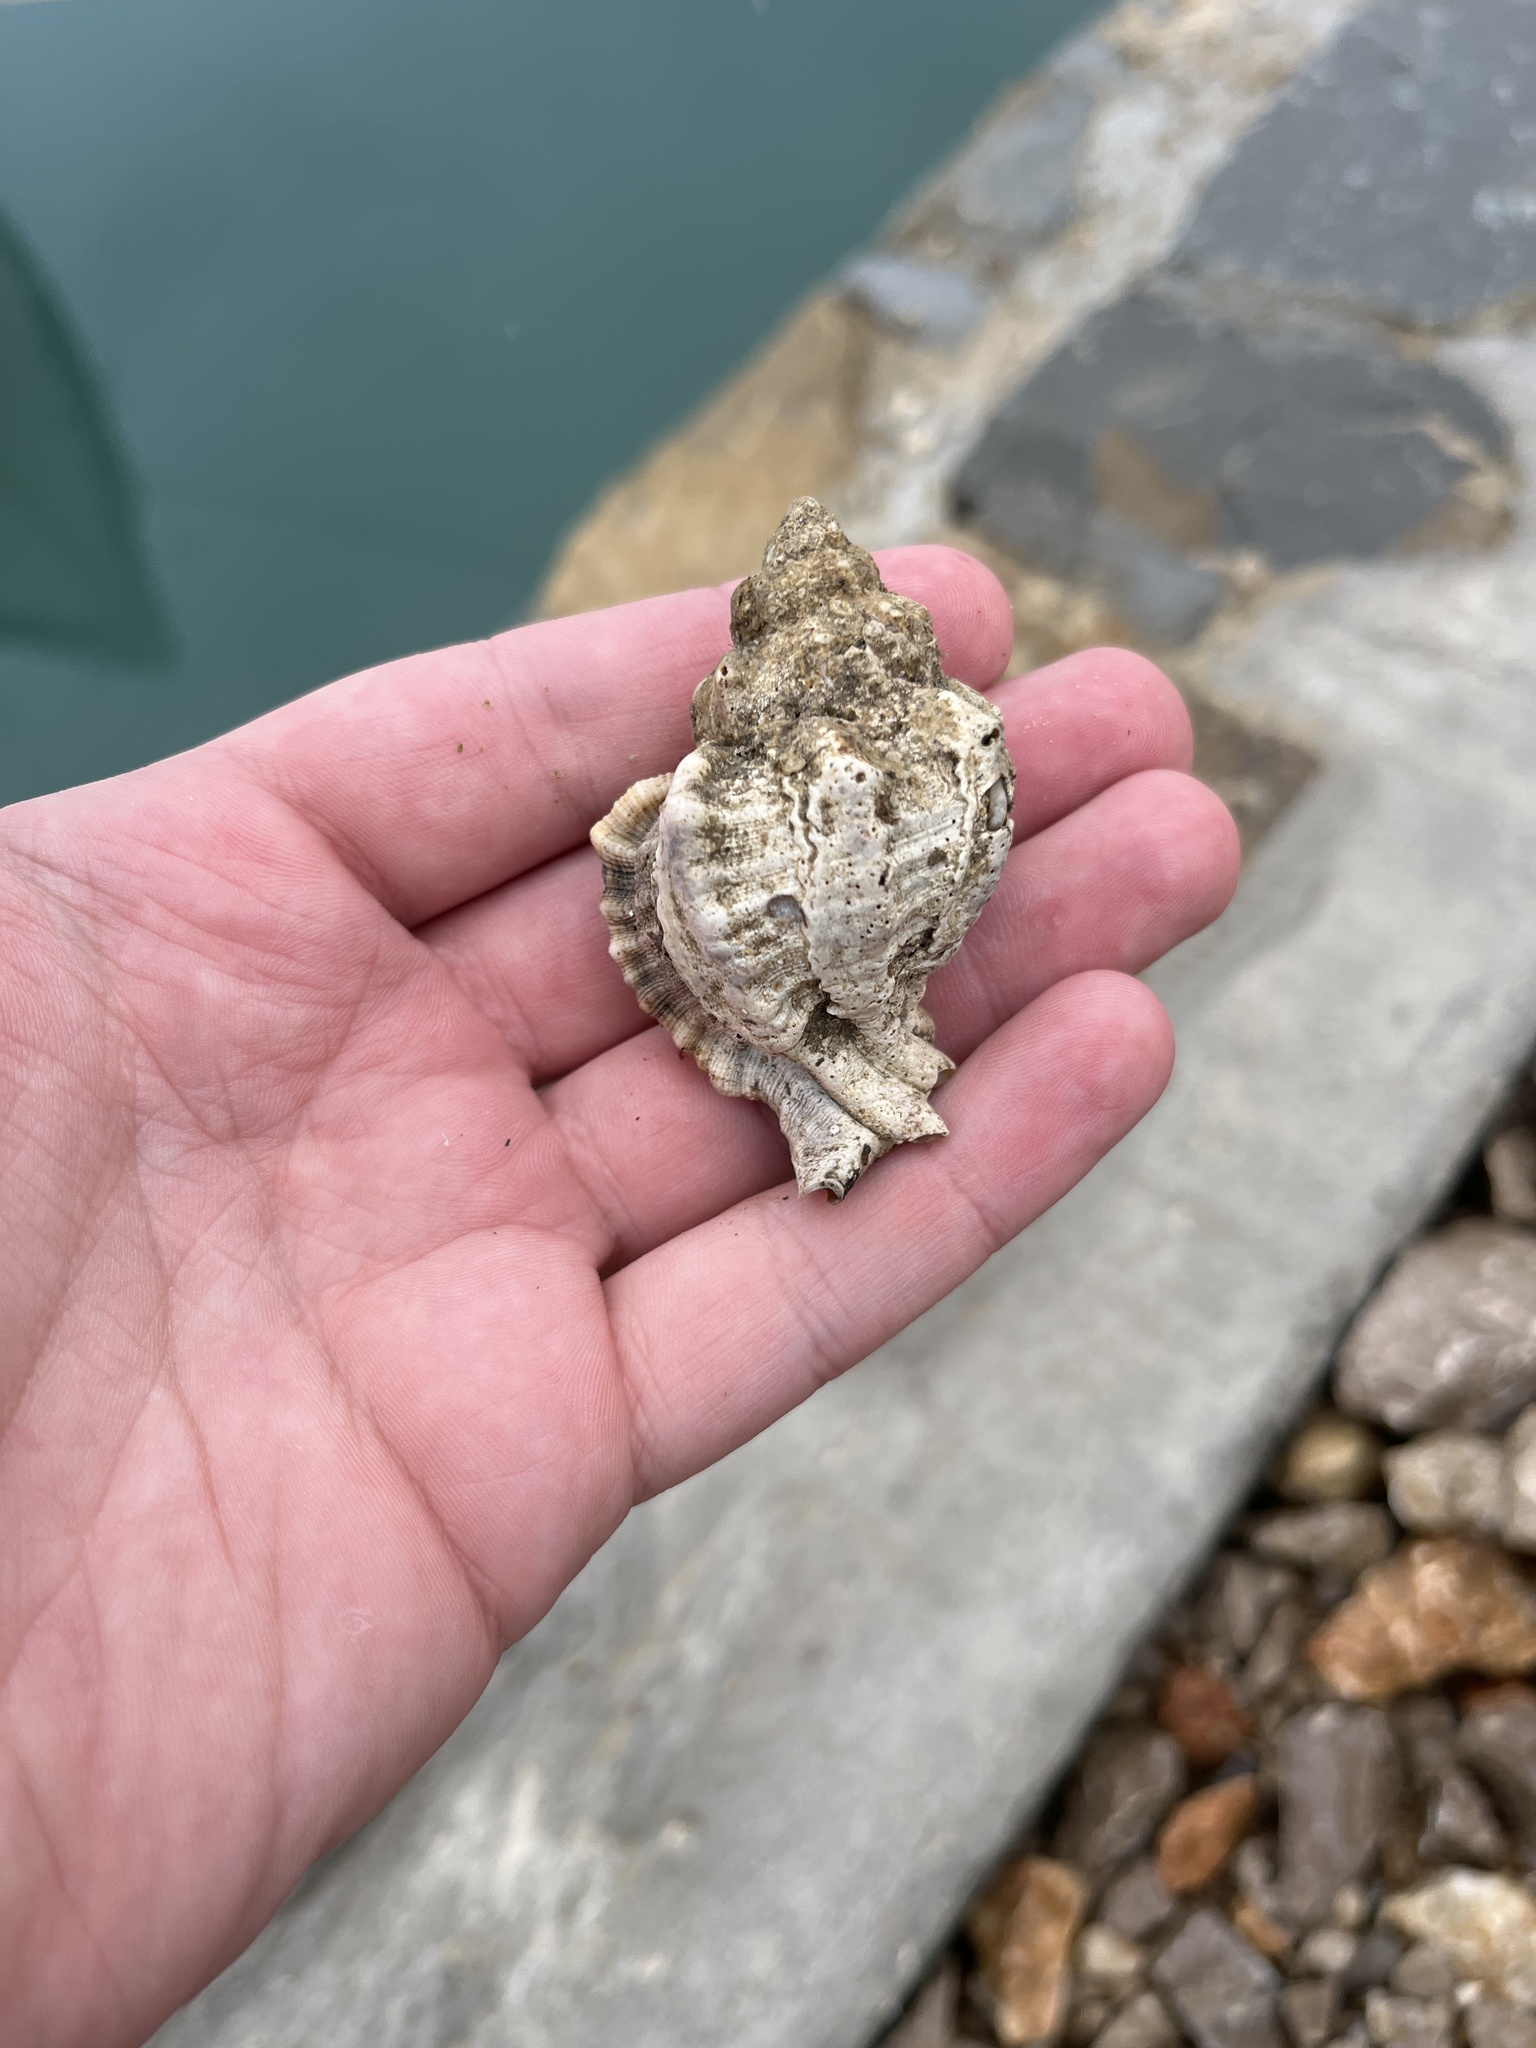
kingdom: Animalia
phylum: Mollusca
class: Gastropoda
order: Neogastropoda
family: Muricidae
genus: Hexaplex
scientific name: Hexaplex trunculus
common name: Banded dye-murex
